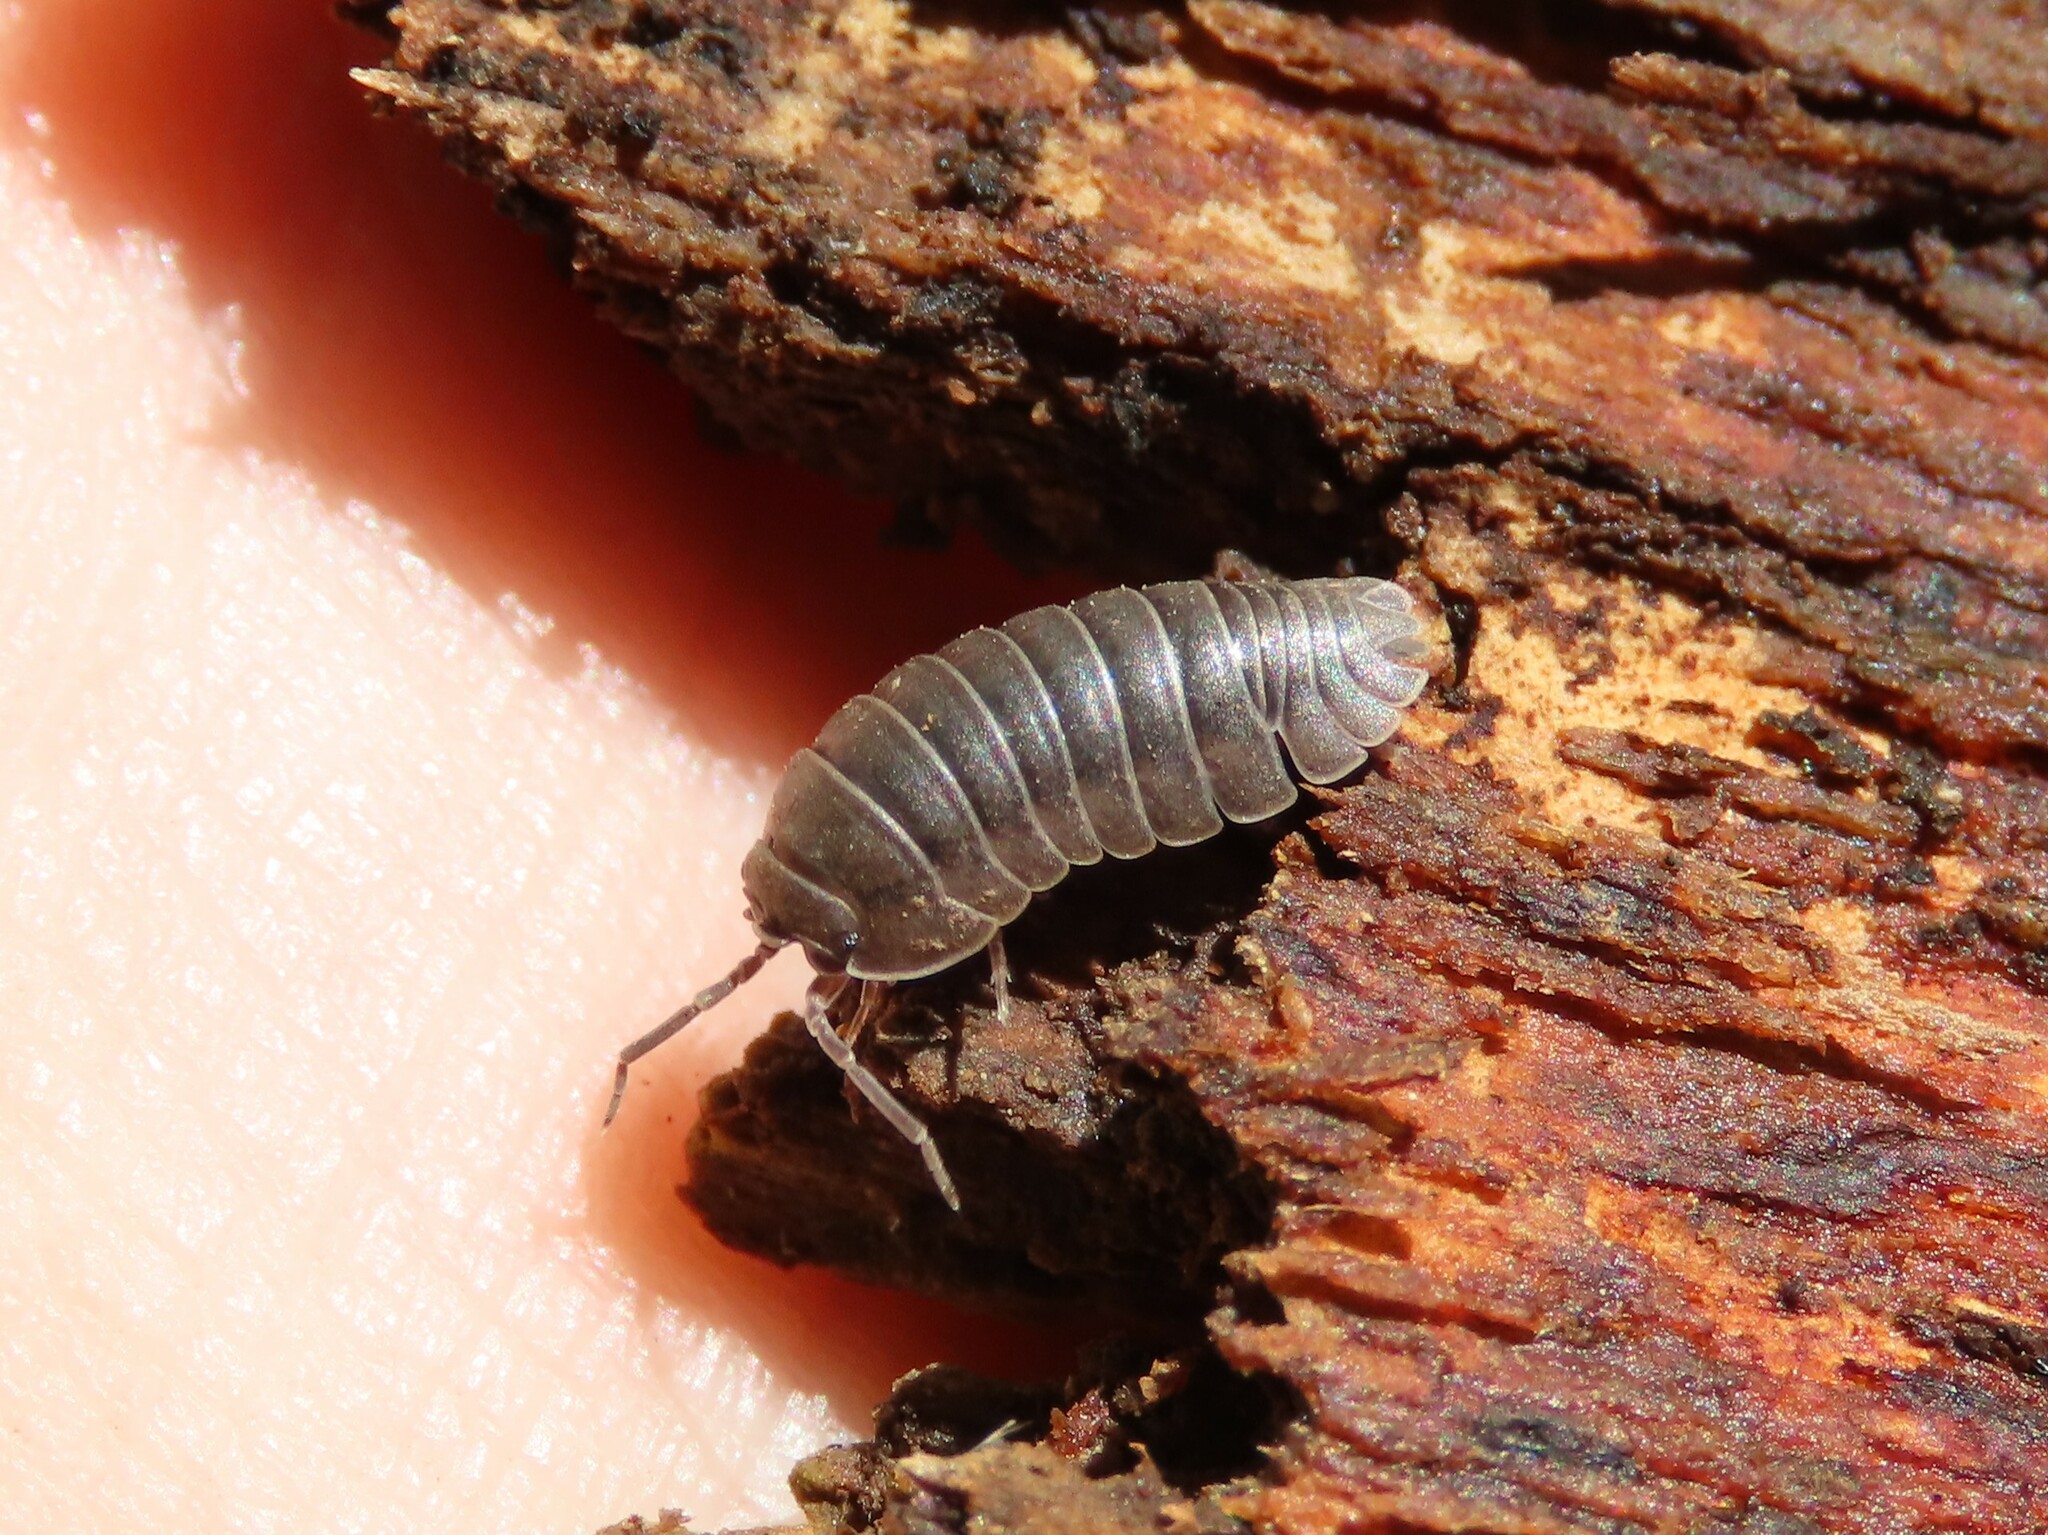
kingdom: Animalia
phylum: Arthropoda
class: Malacostraca
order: Isopoda
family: Armadillidiidae
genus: Armadillidium
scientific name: Armadillidium nasatum
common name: Isopod
